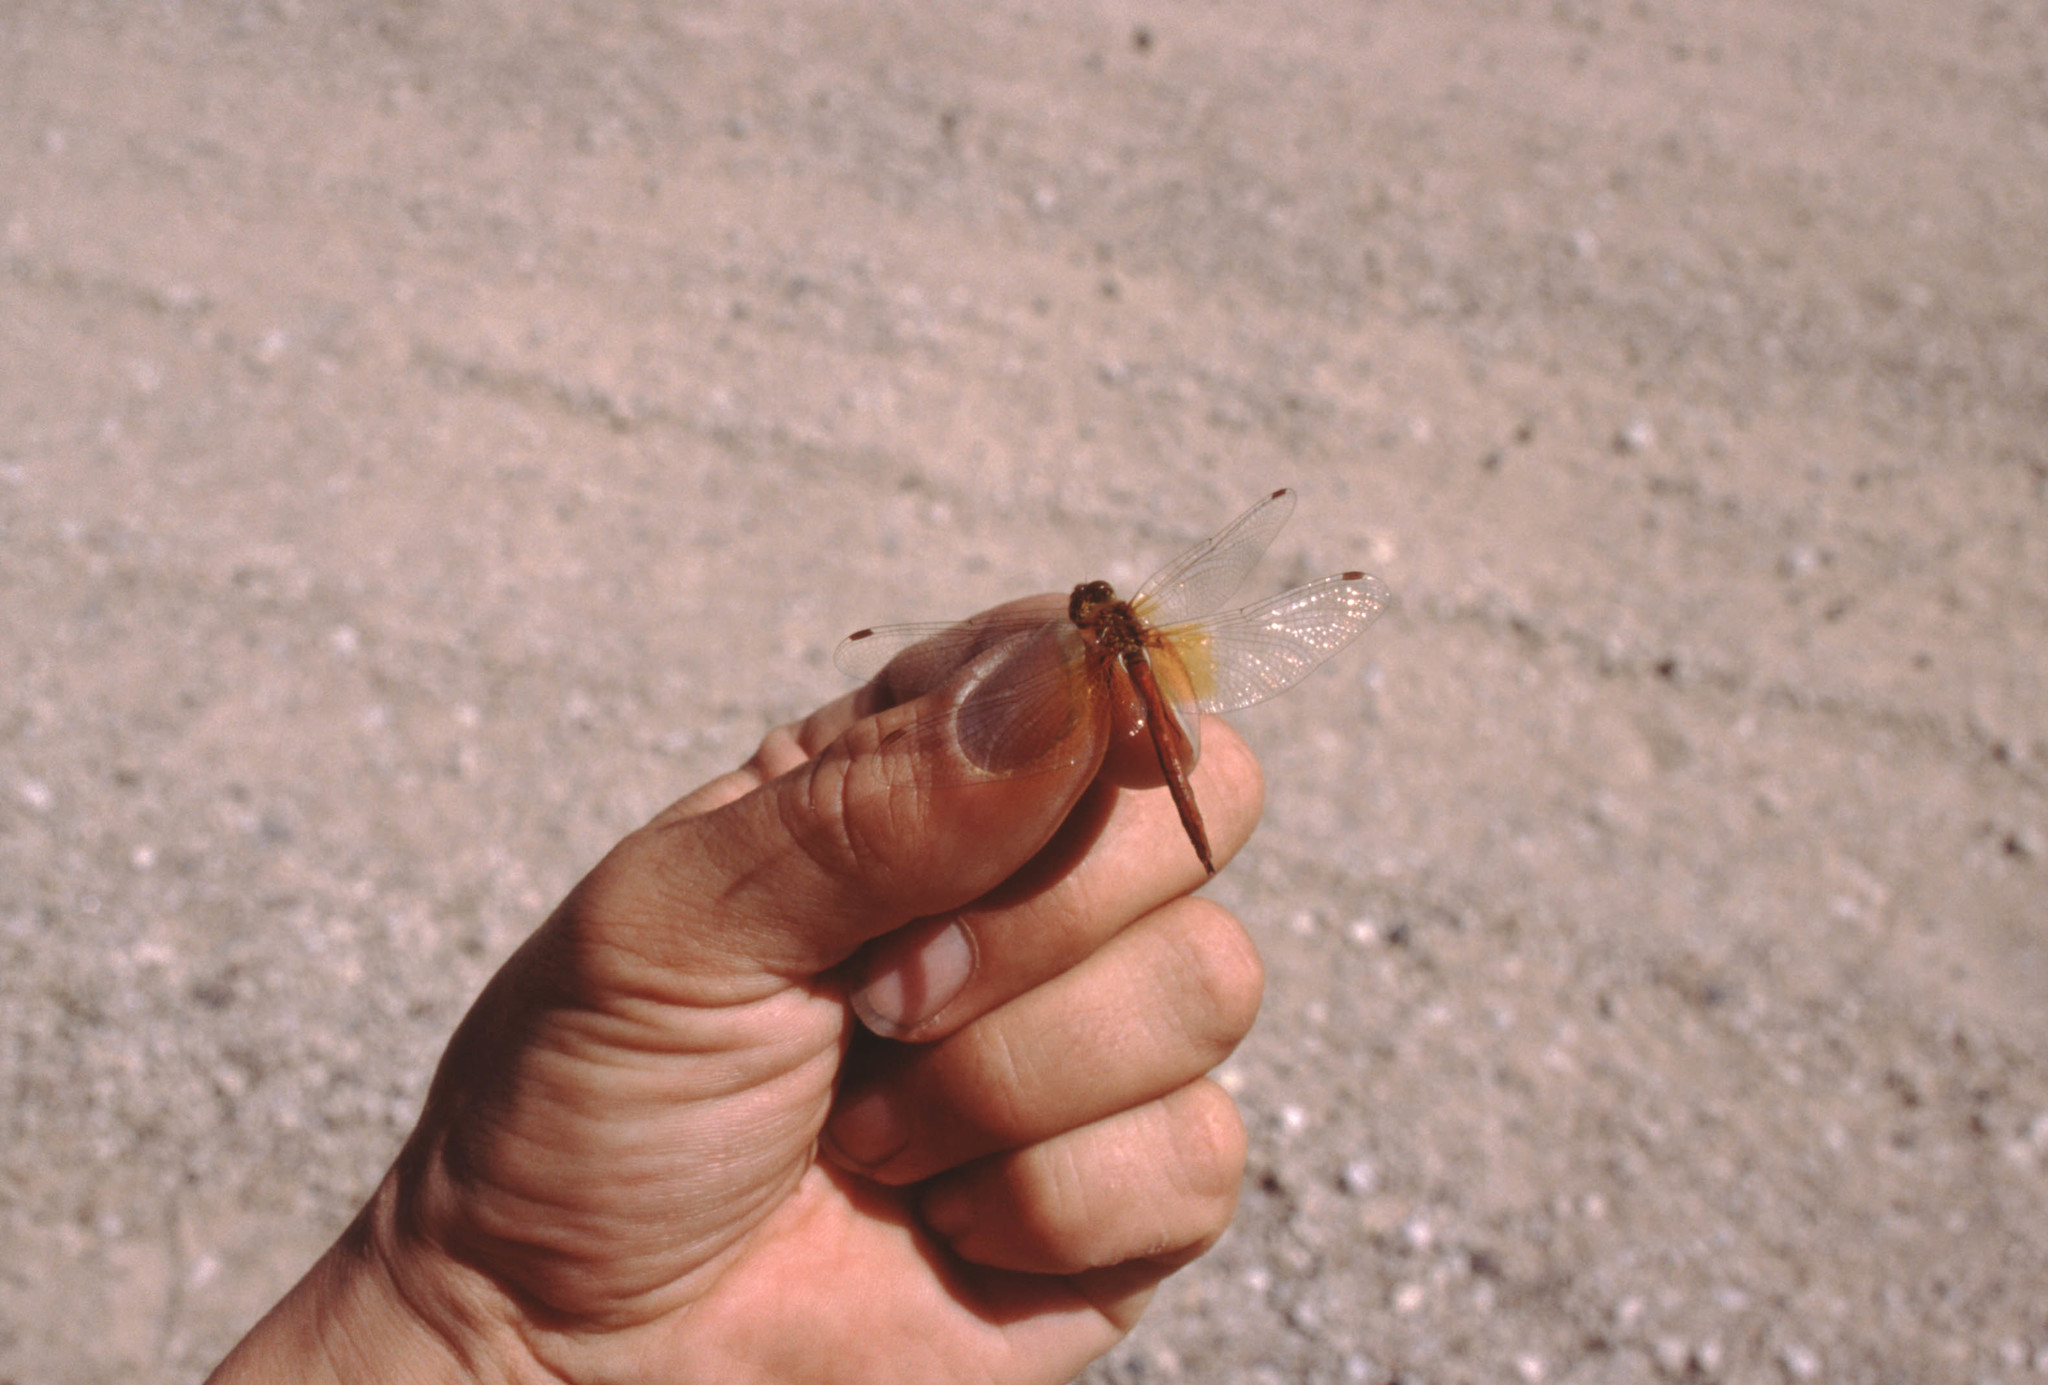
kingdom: Animalia
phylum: Arthropoda
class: Insecta
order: Odonata
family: Libellulidae
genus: Sympetrum
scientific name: Sympetrum flaveolum
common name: Yellow-winged darter
